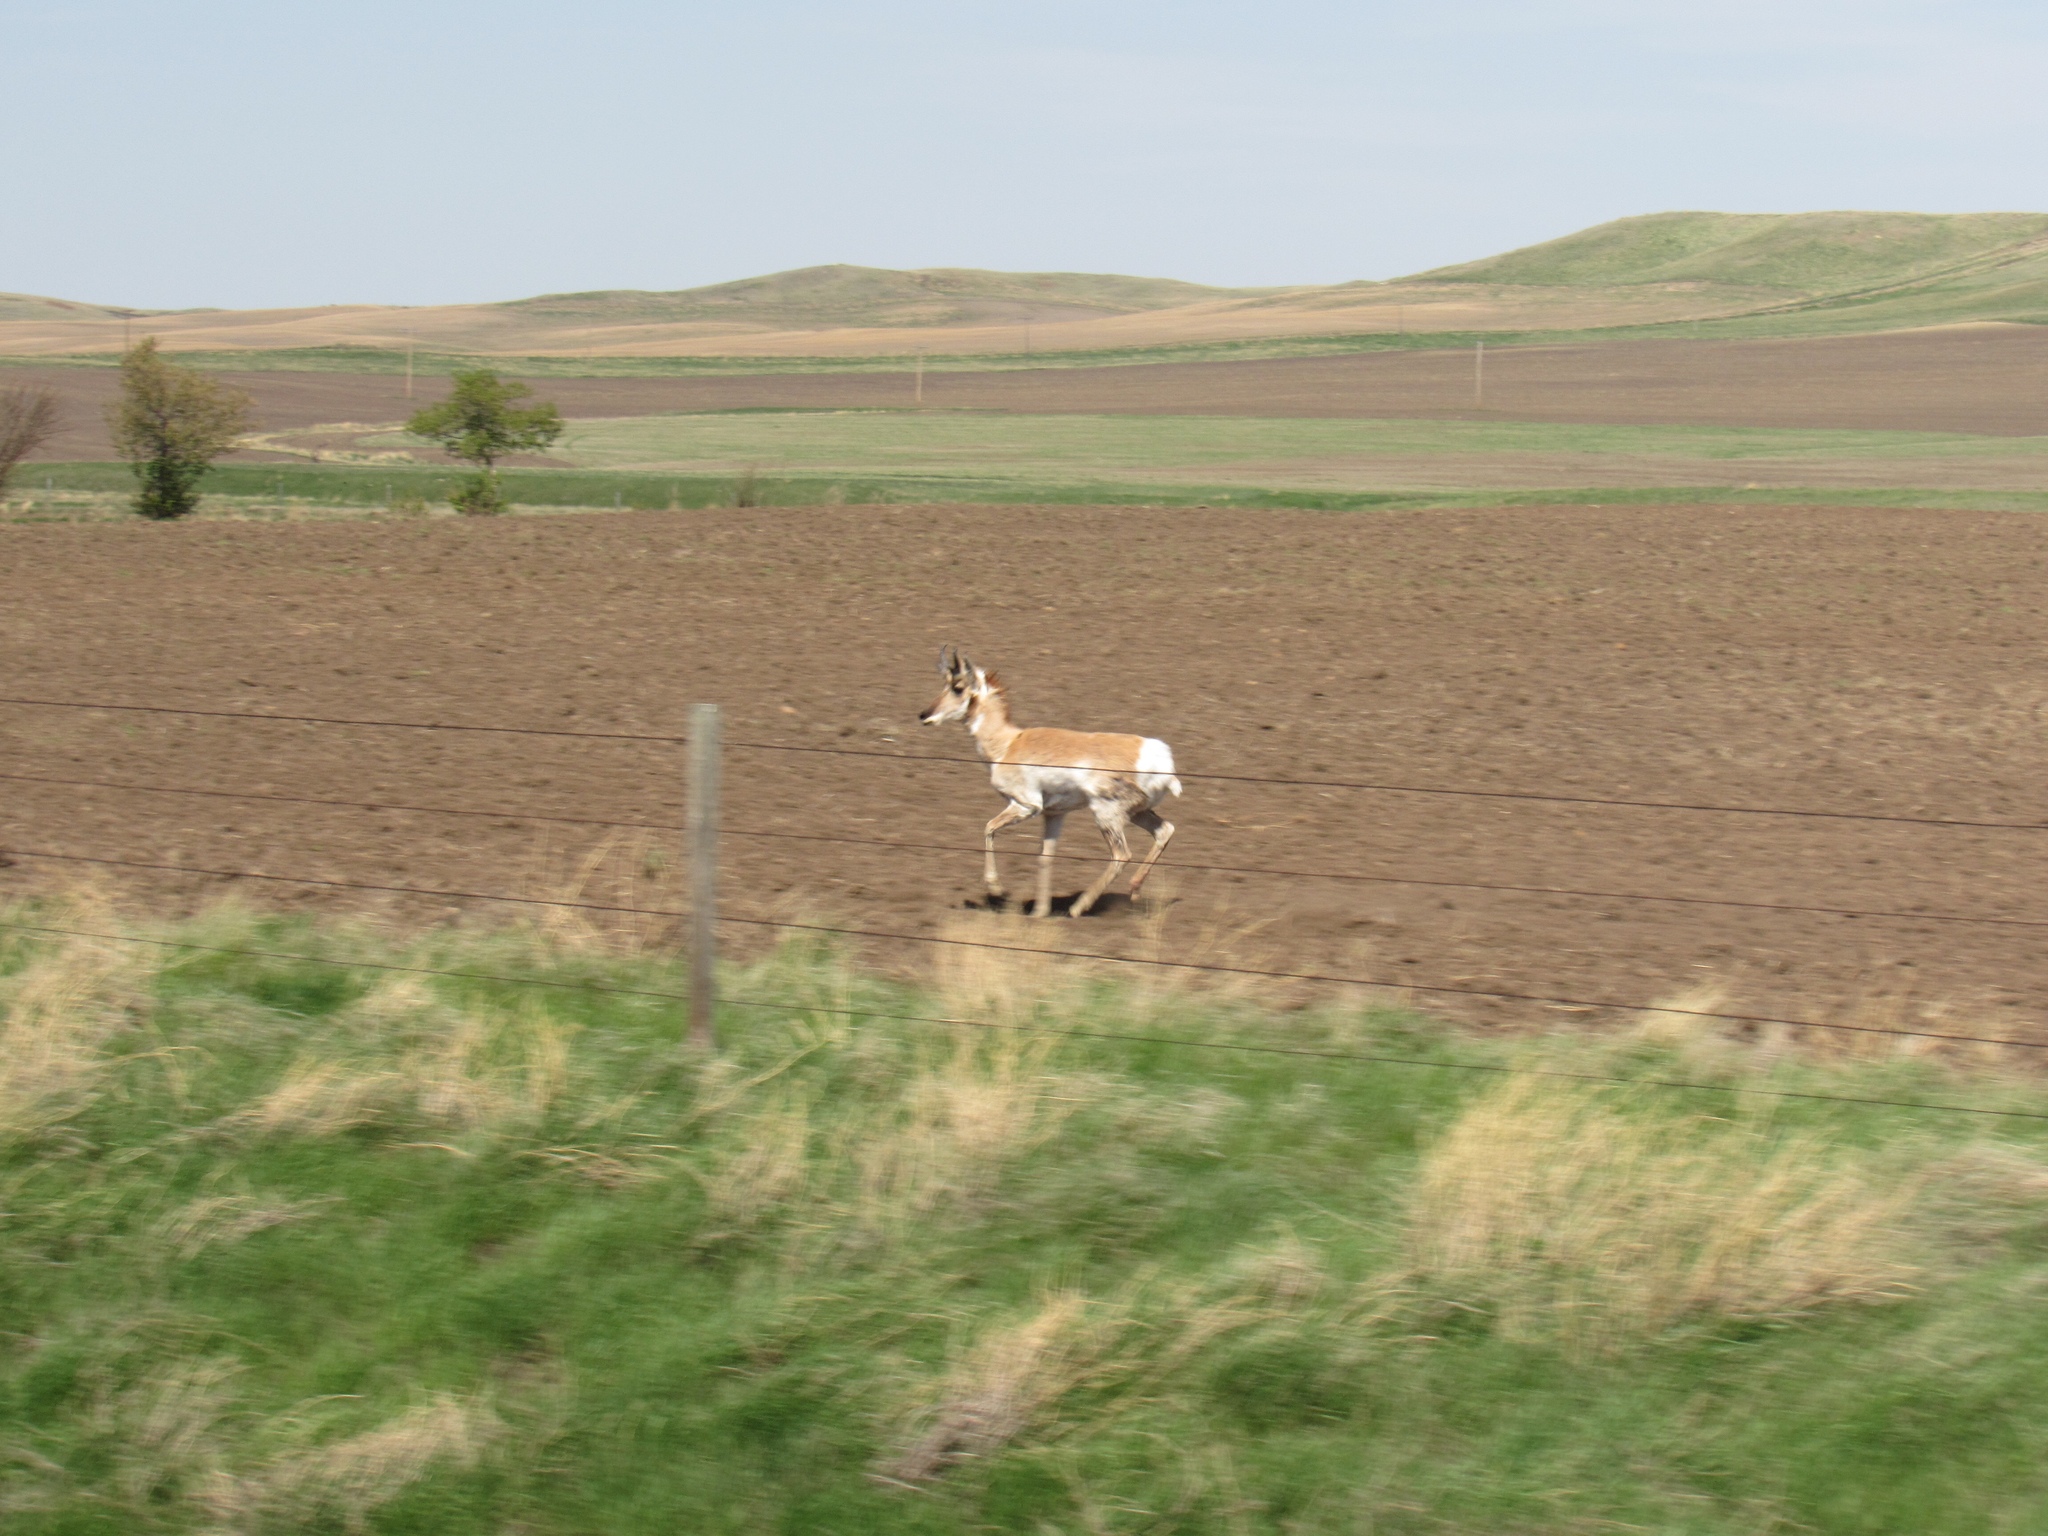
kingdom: Animalia
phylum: Chordata
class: Mammalia
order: Artiodactyla
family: Antilocapridae
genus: Antilocapra
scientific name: Antilocapra americana
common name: Pronghorn
